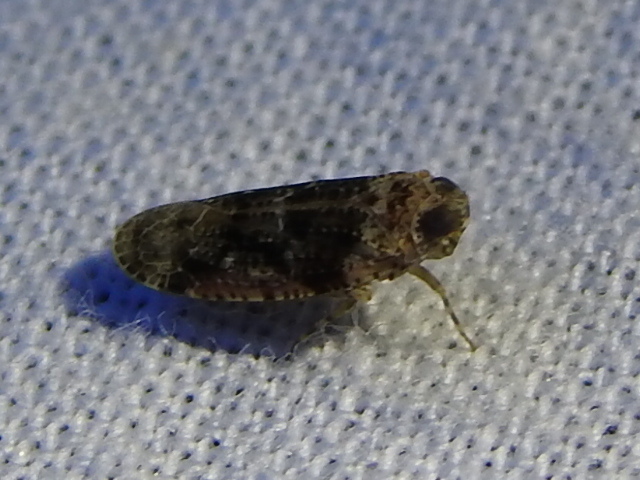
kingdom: Animalia
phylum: Arthropoda
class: Insecta
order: Hemiptera
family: Achilidae
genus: Catonia
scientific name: Catonia nava
